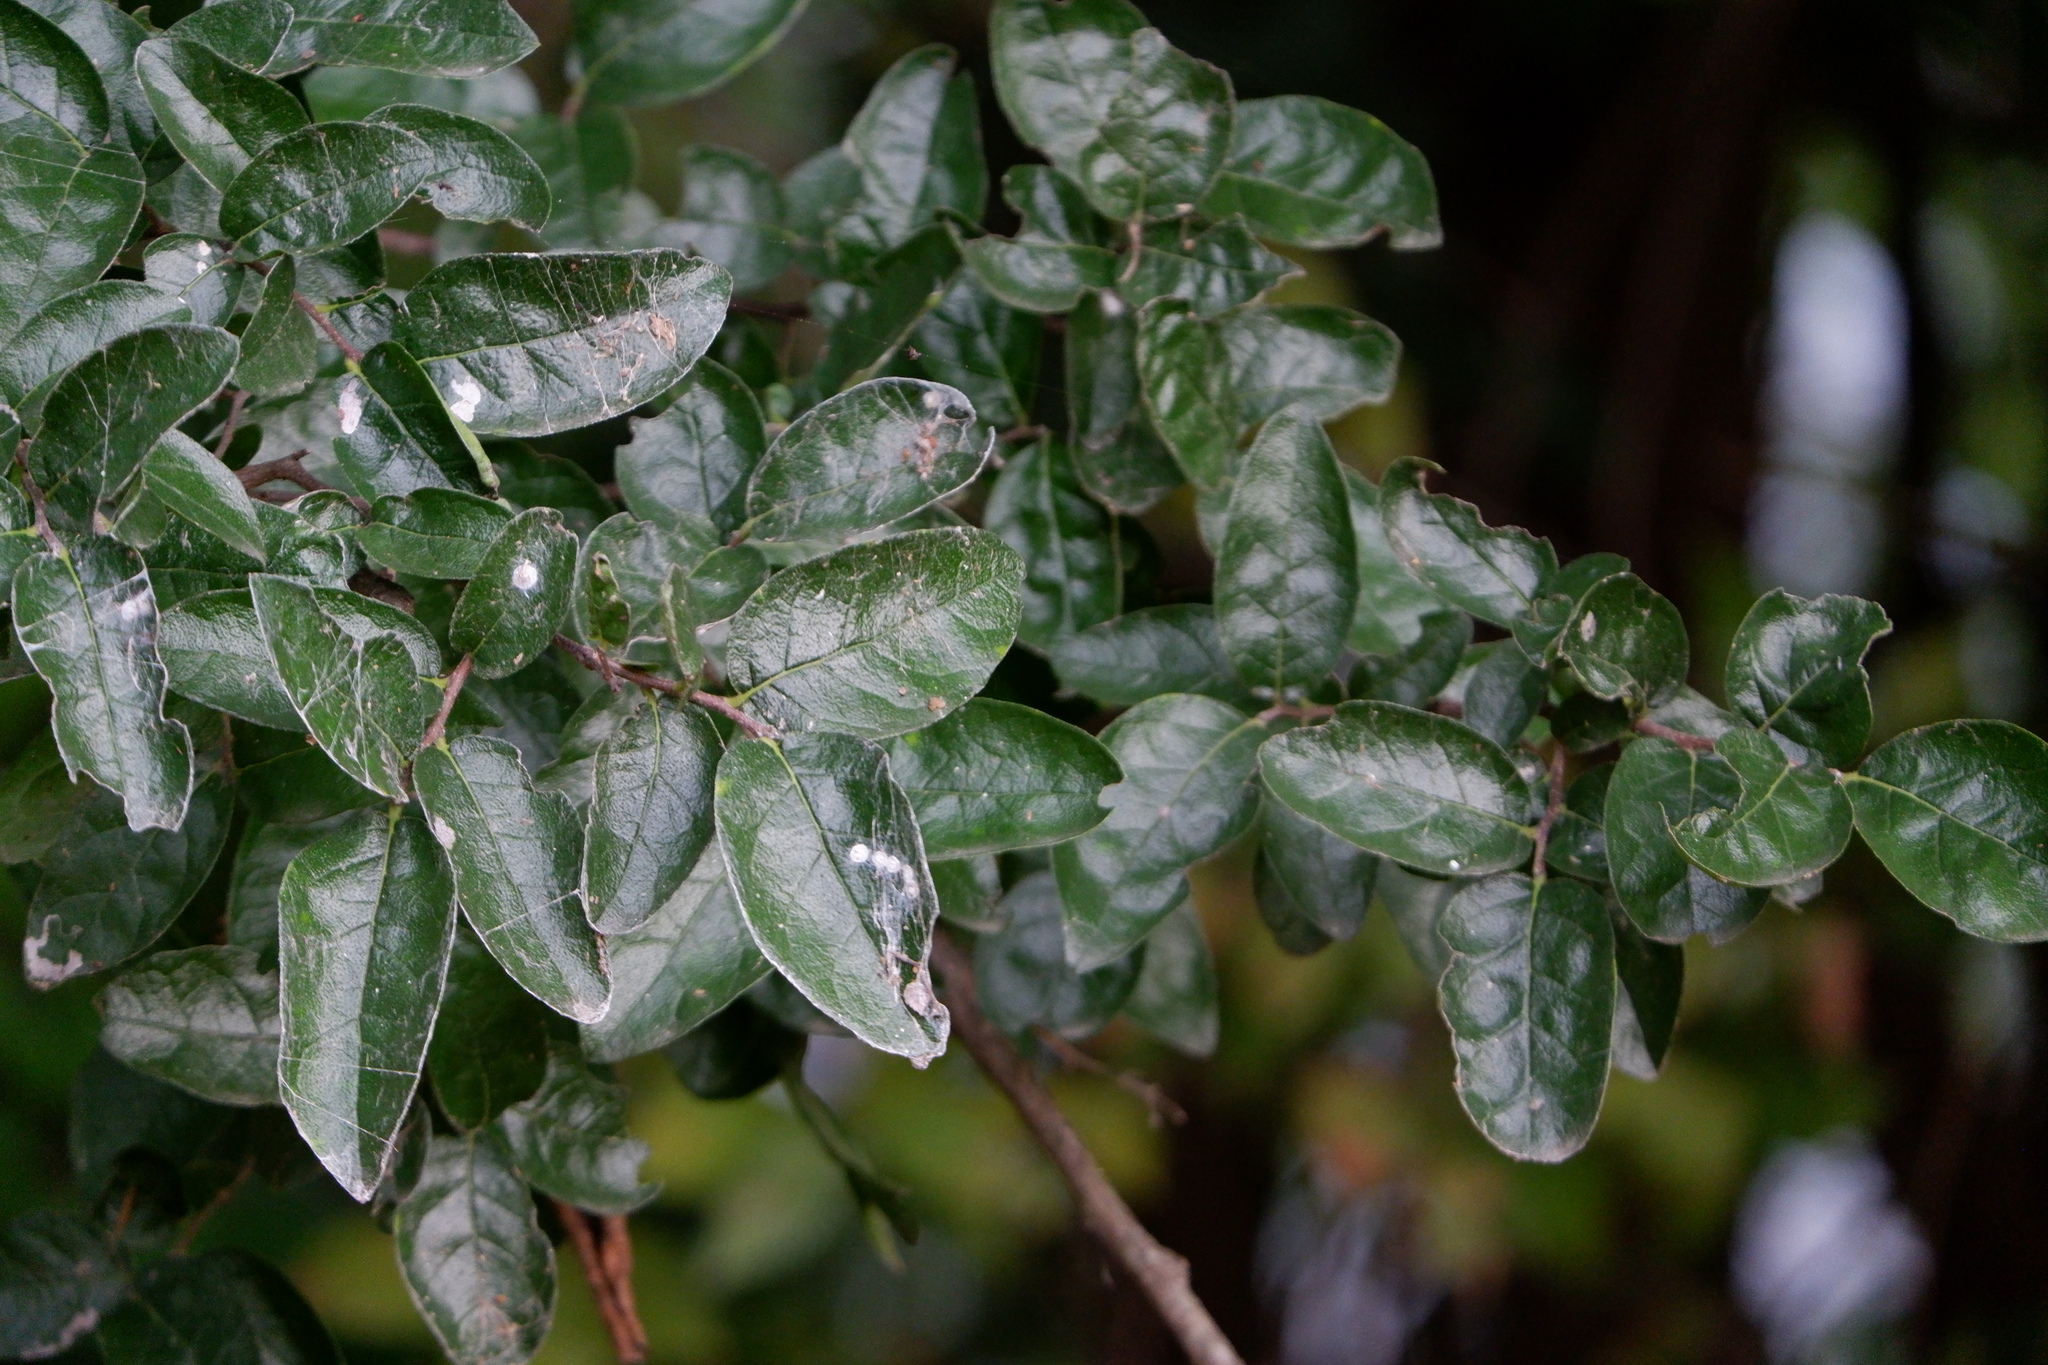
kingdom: Plantae
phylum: Tracheophyta
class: Magnoliopsida
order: Boraginales
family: Ehretiaceae
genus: Ehretia
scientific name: Ehretia anacua
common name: Sugarberry
